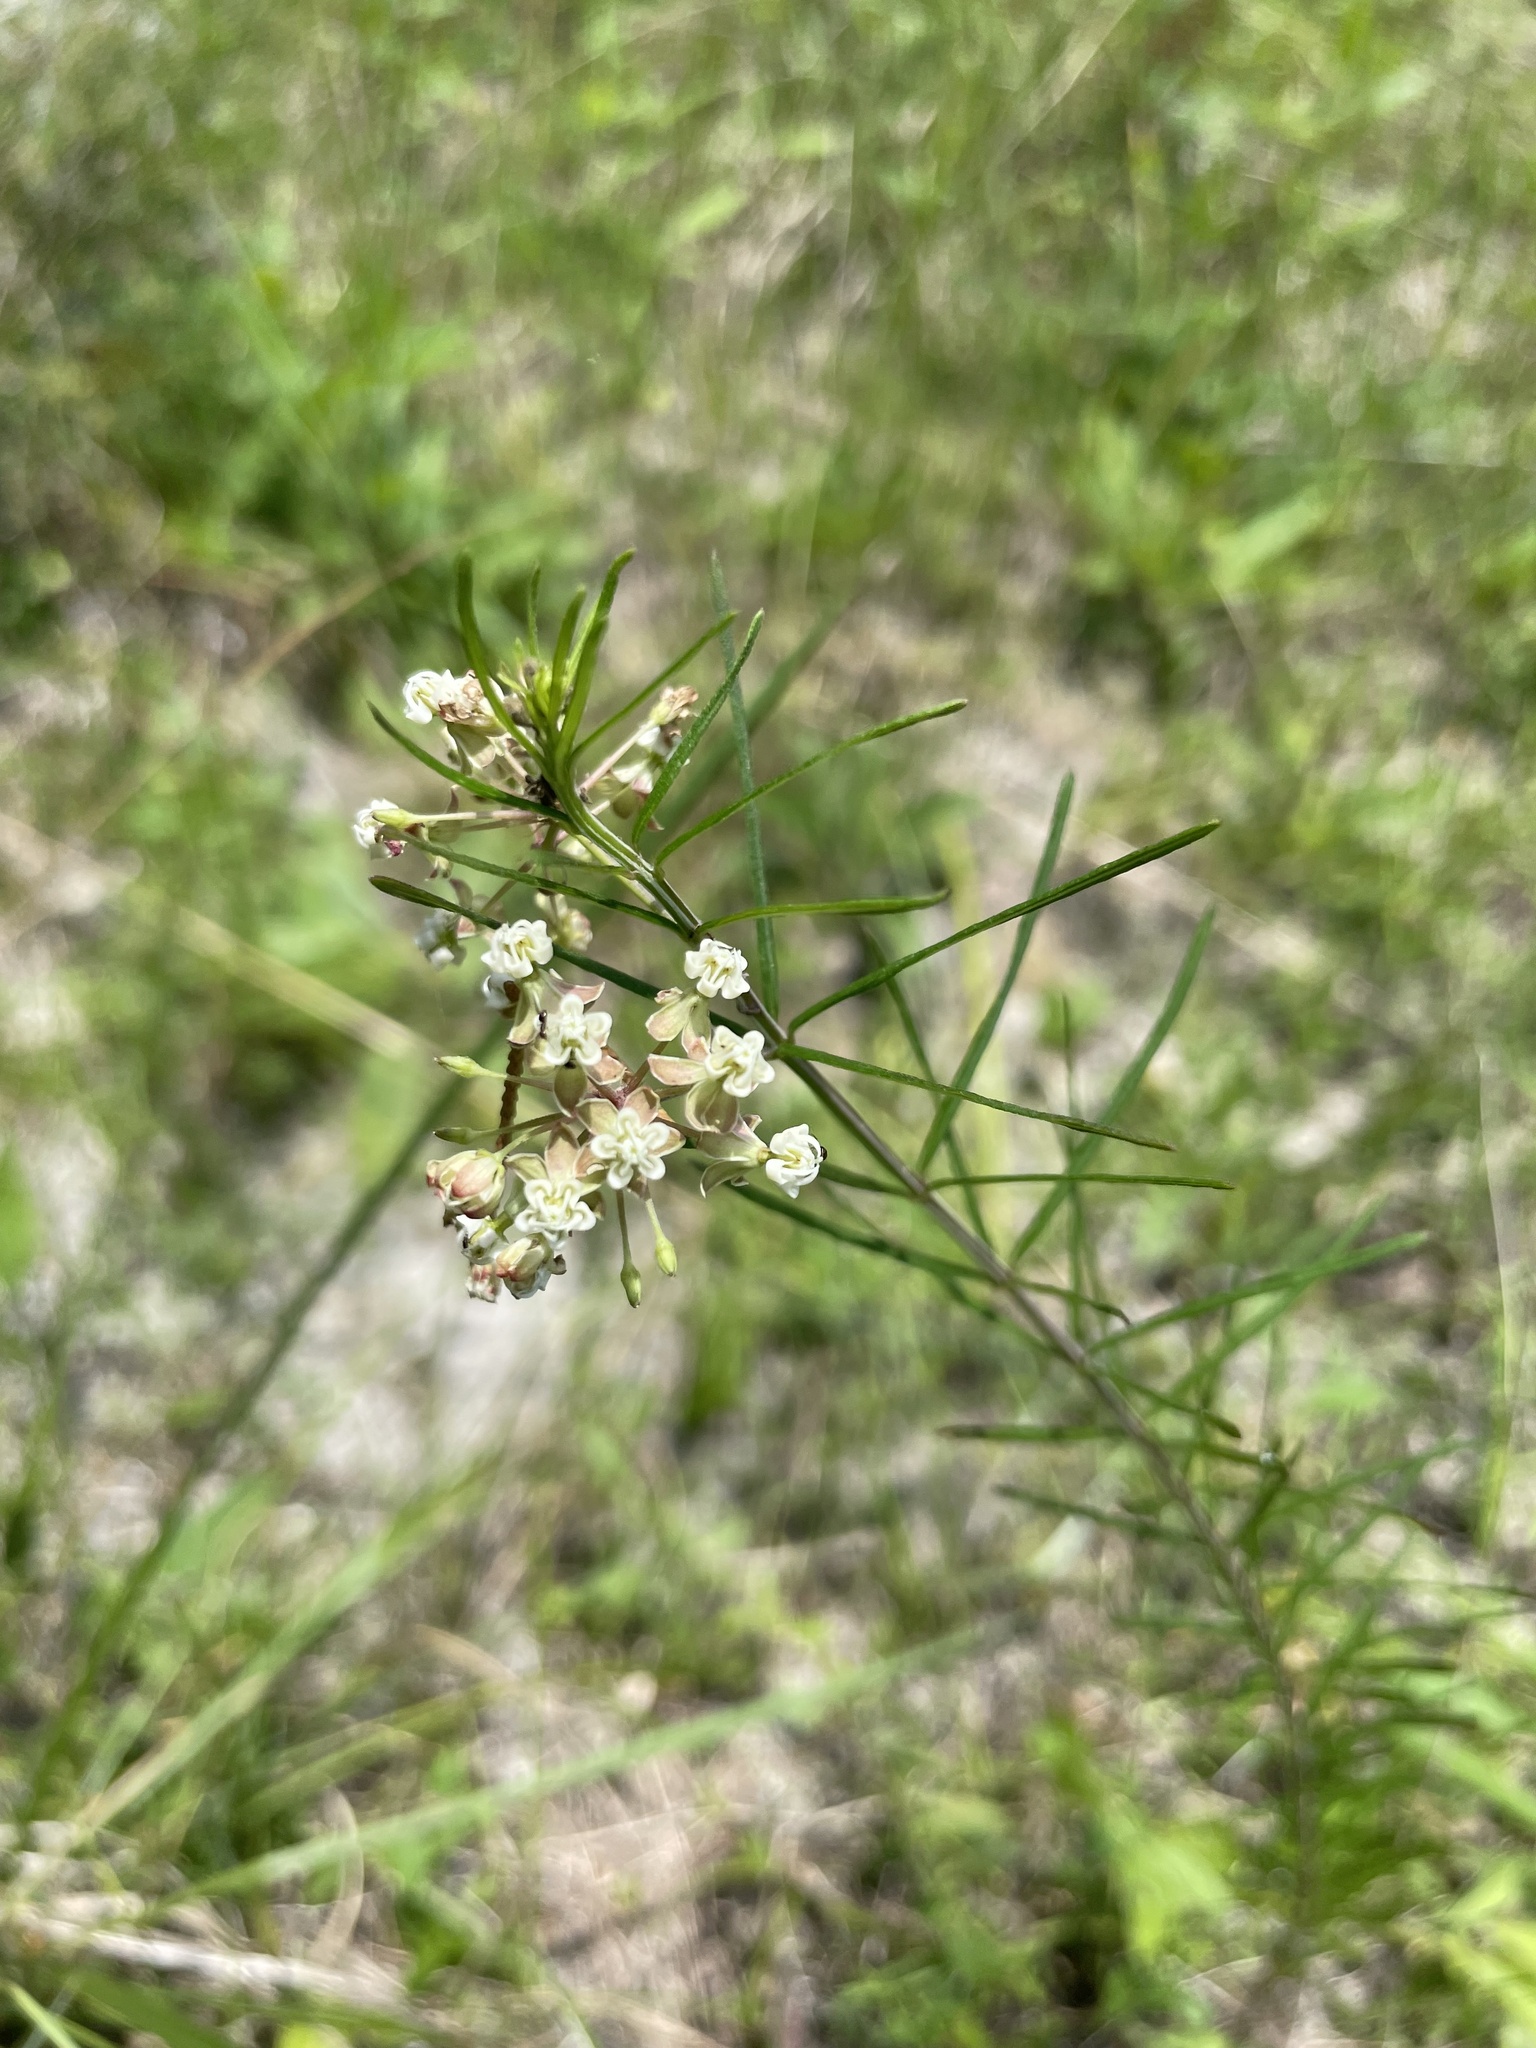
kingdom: Plantae
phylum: Tracheophyta
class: Magnoliopsida
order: Gentianales
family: Apocynaceae
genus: Asclepias
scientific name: Asclepias verticillata
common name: Eastern whorled milkweed
